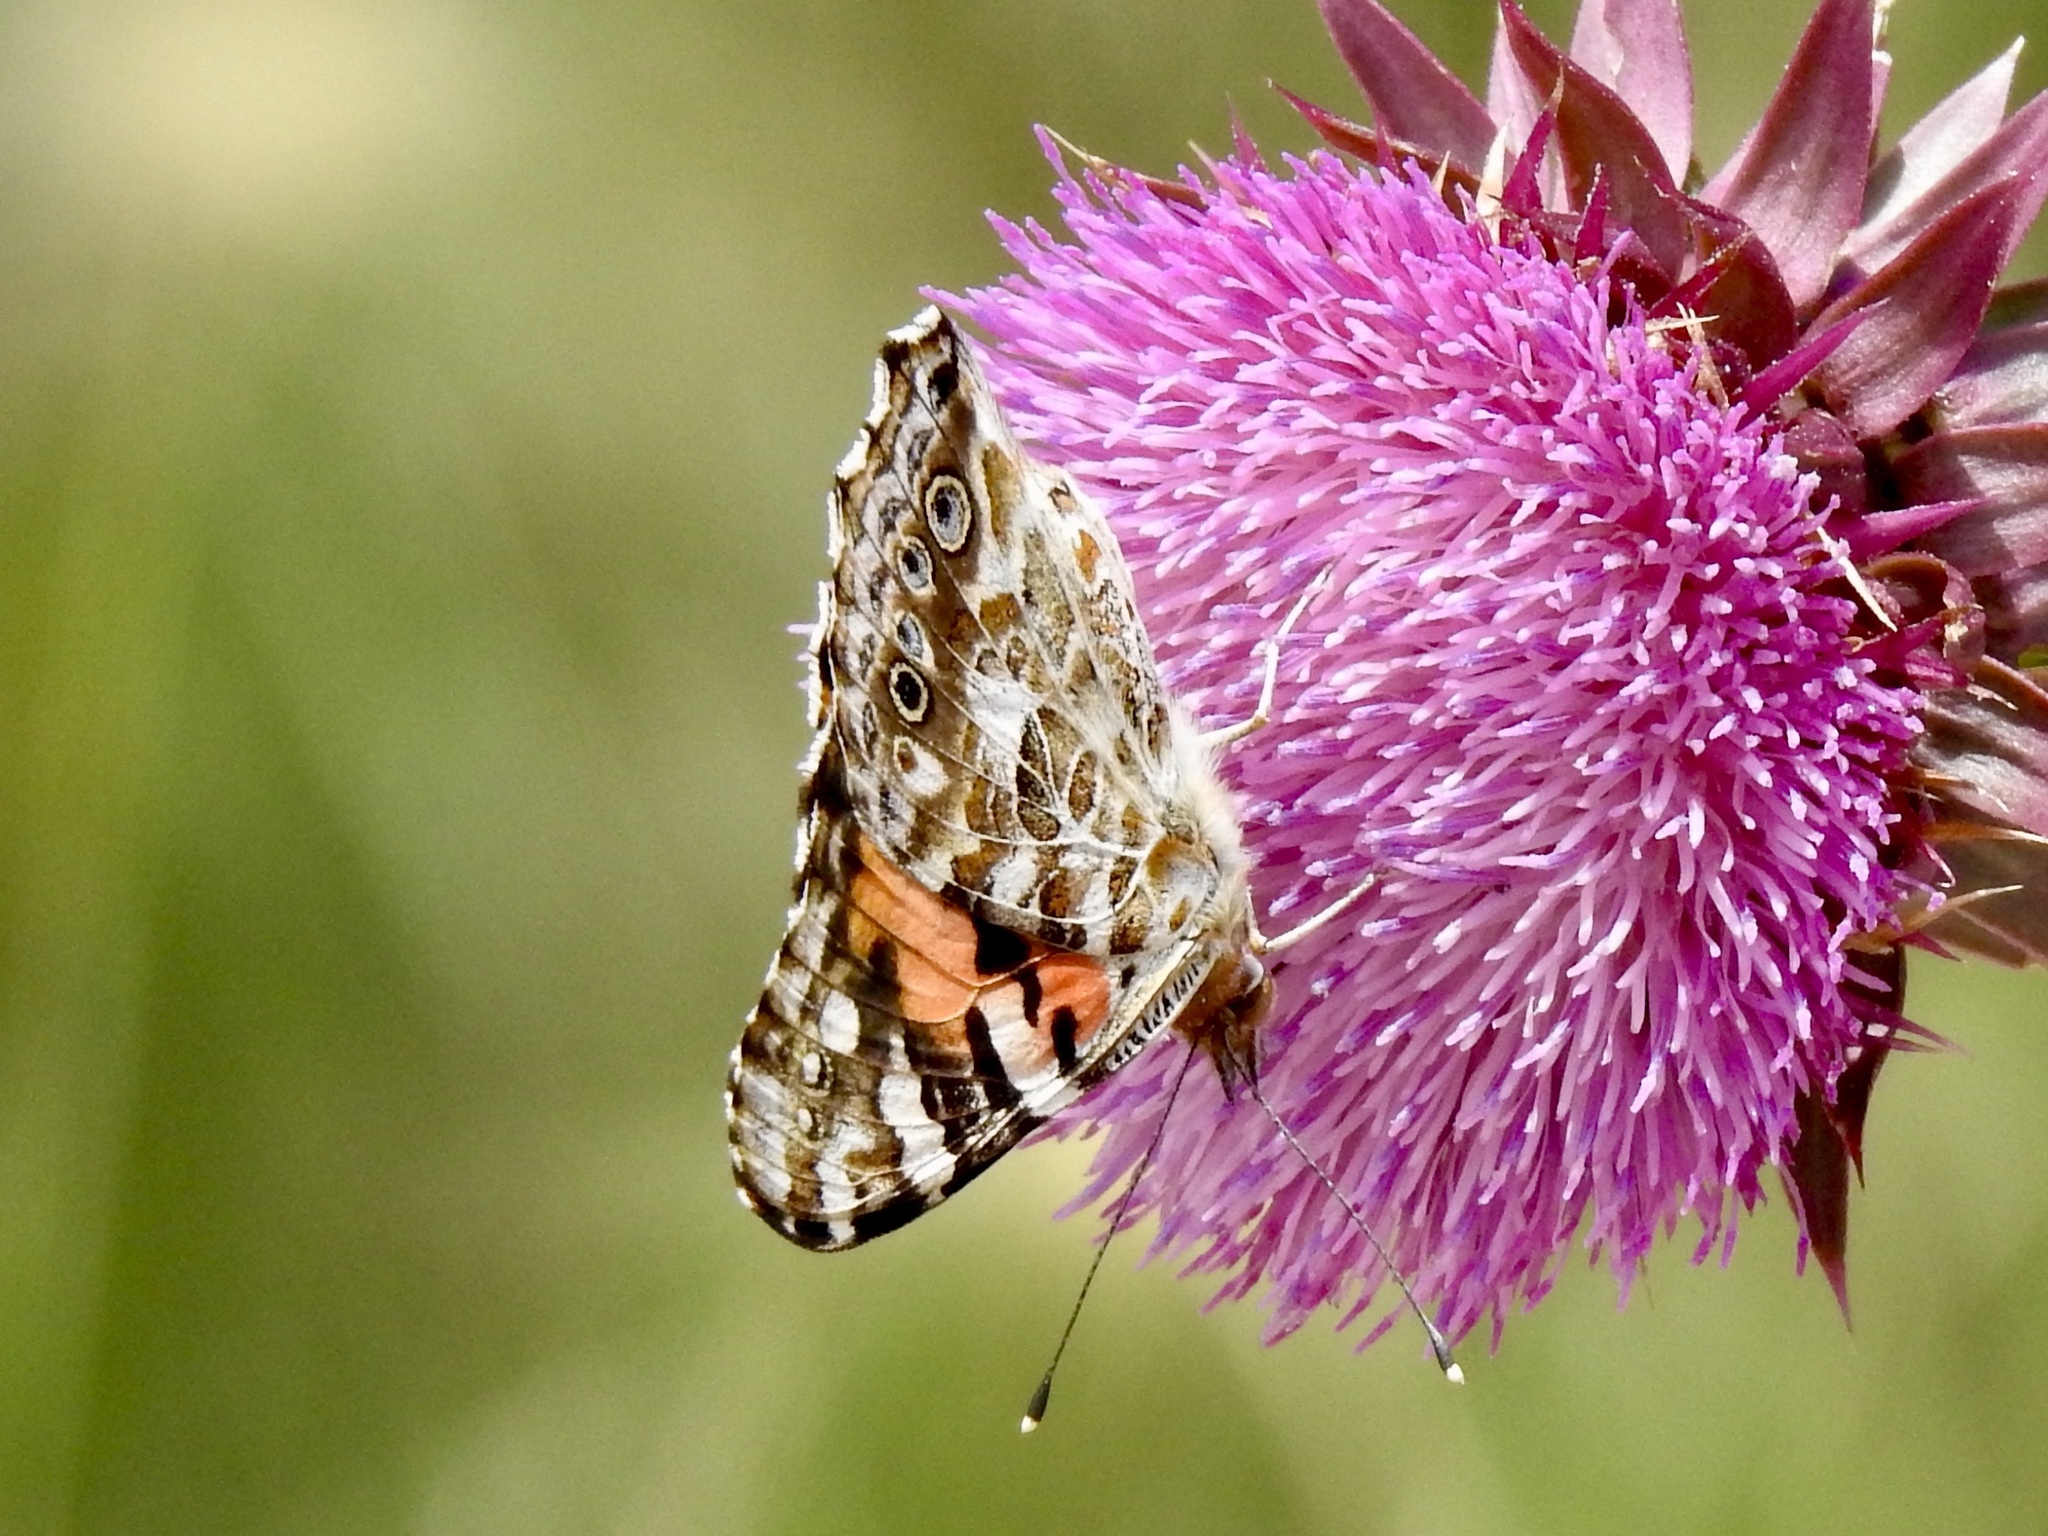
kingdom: Animalia
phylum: Arthropoda
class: Insecta
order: Lepidoptera
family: Nymphalidae
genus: Vanessa
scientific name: Vanessa cardui
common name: Painted lady
